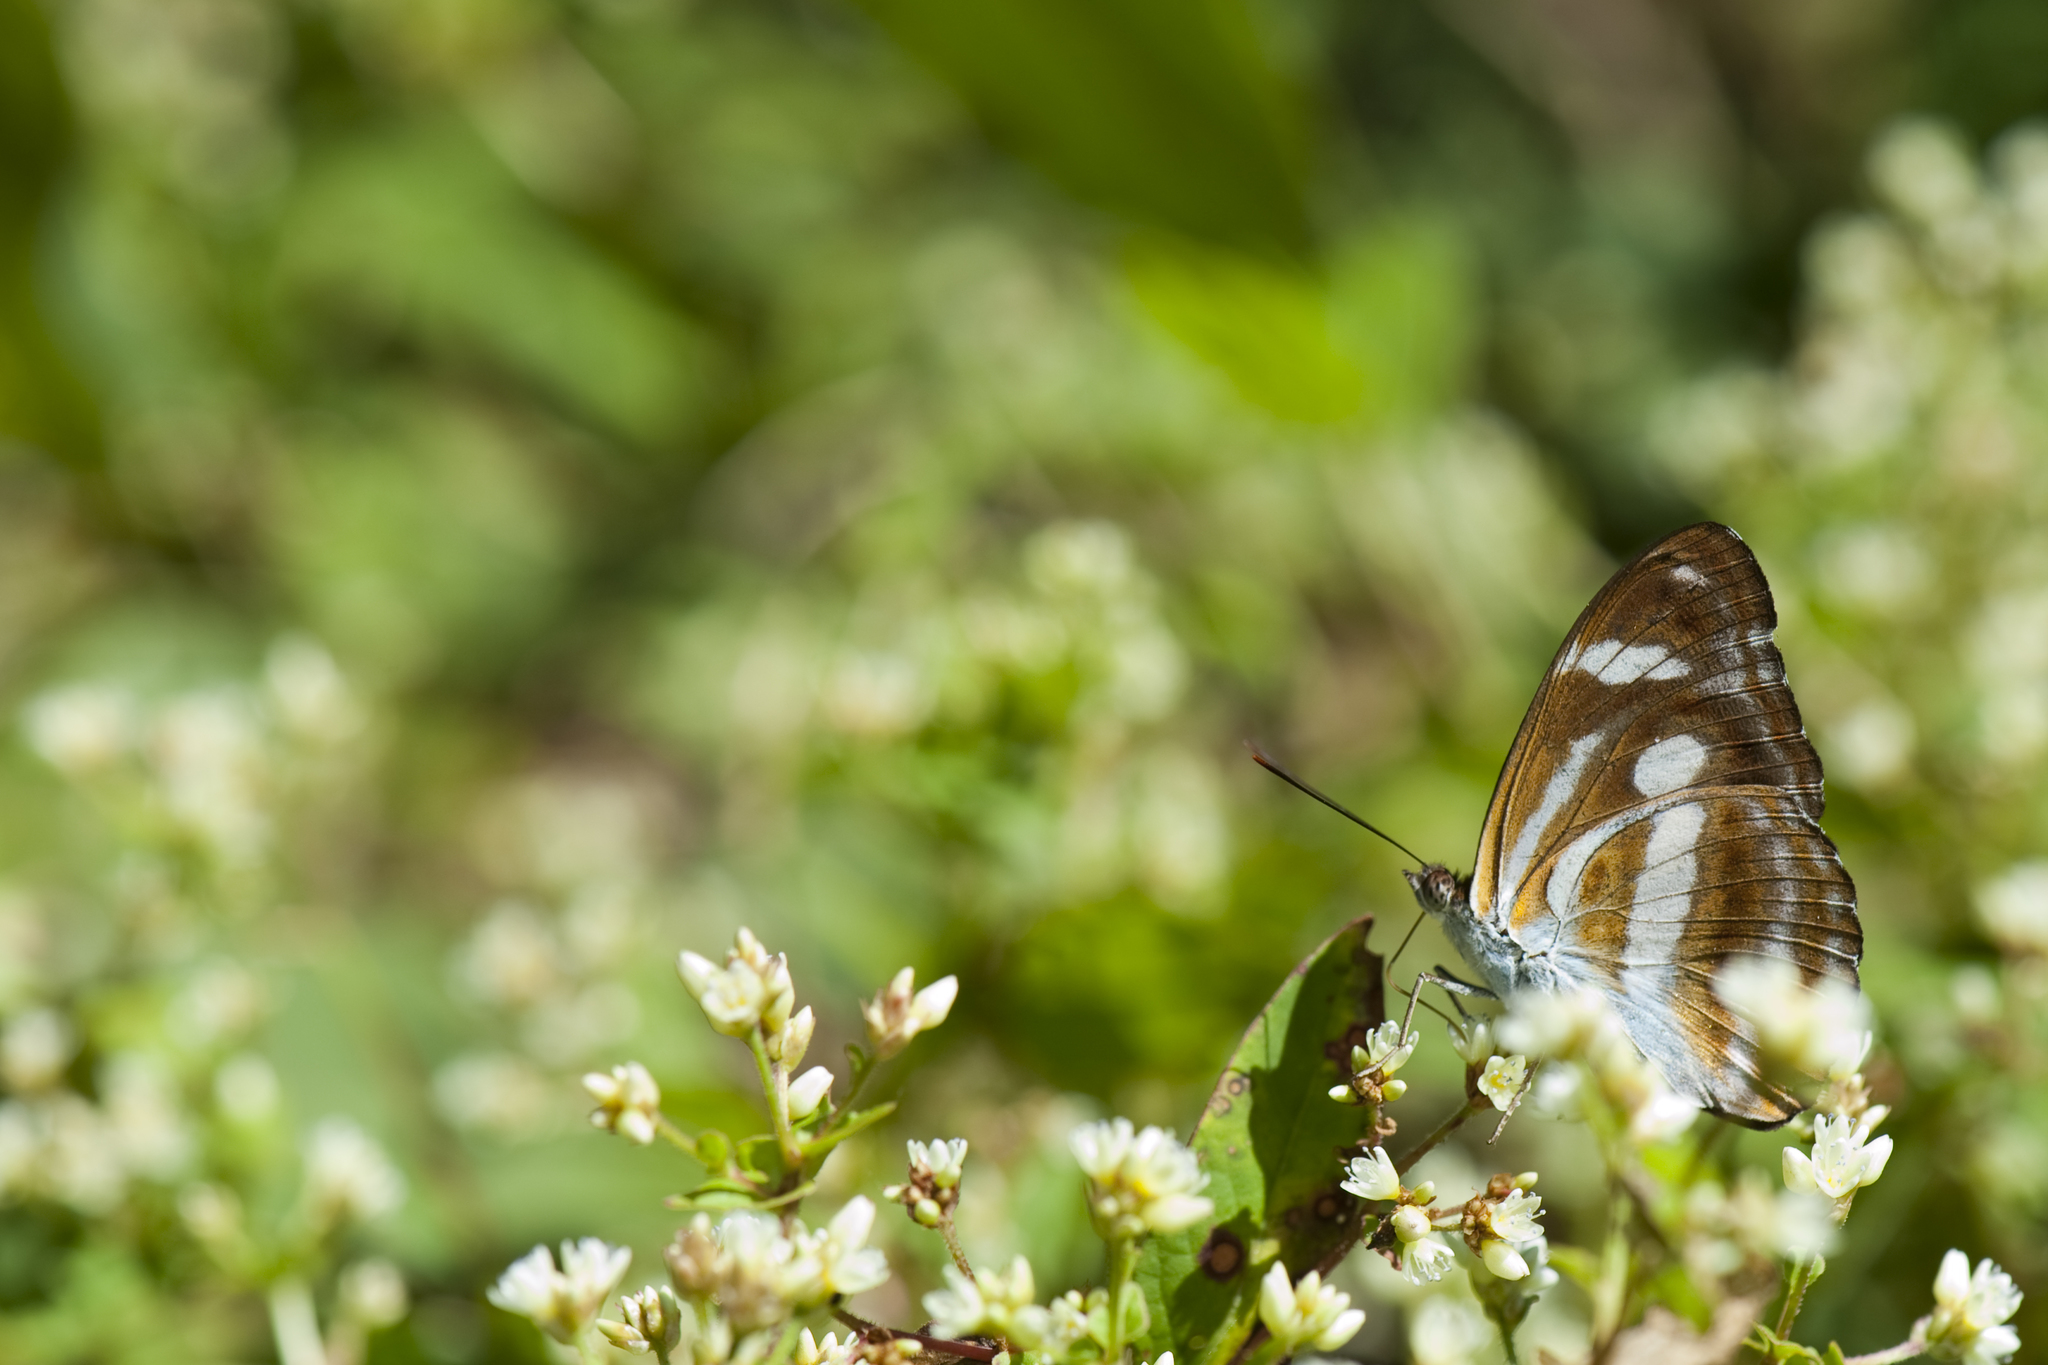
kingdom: Animalia
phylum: Arthropoda
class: Insecta
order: Lepidoptera
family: Nymphalidae
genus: Pantoporia
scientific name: Pantoporia cama
